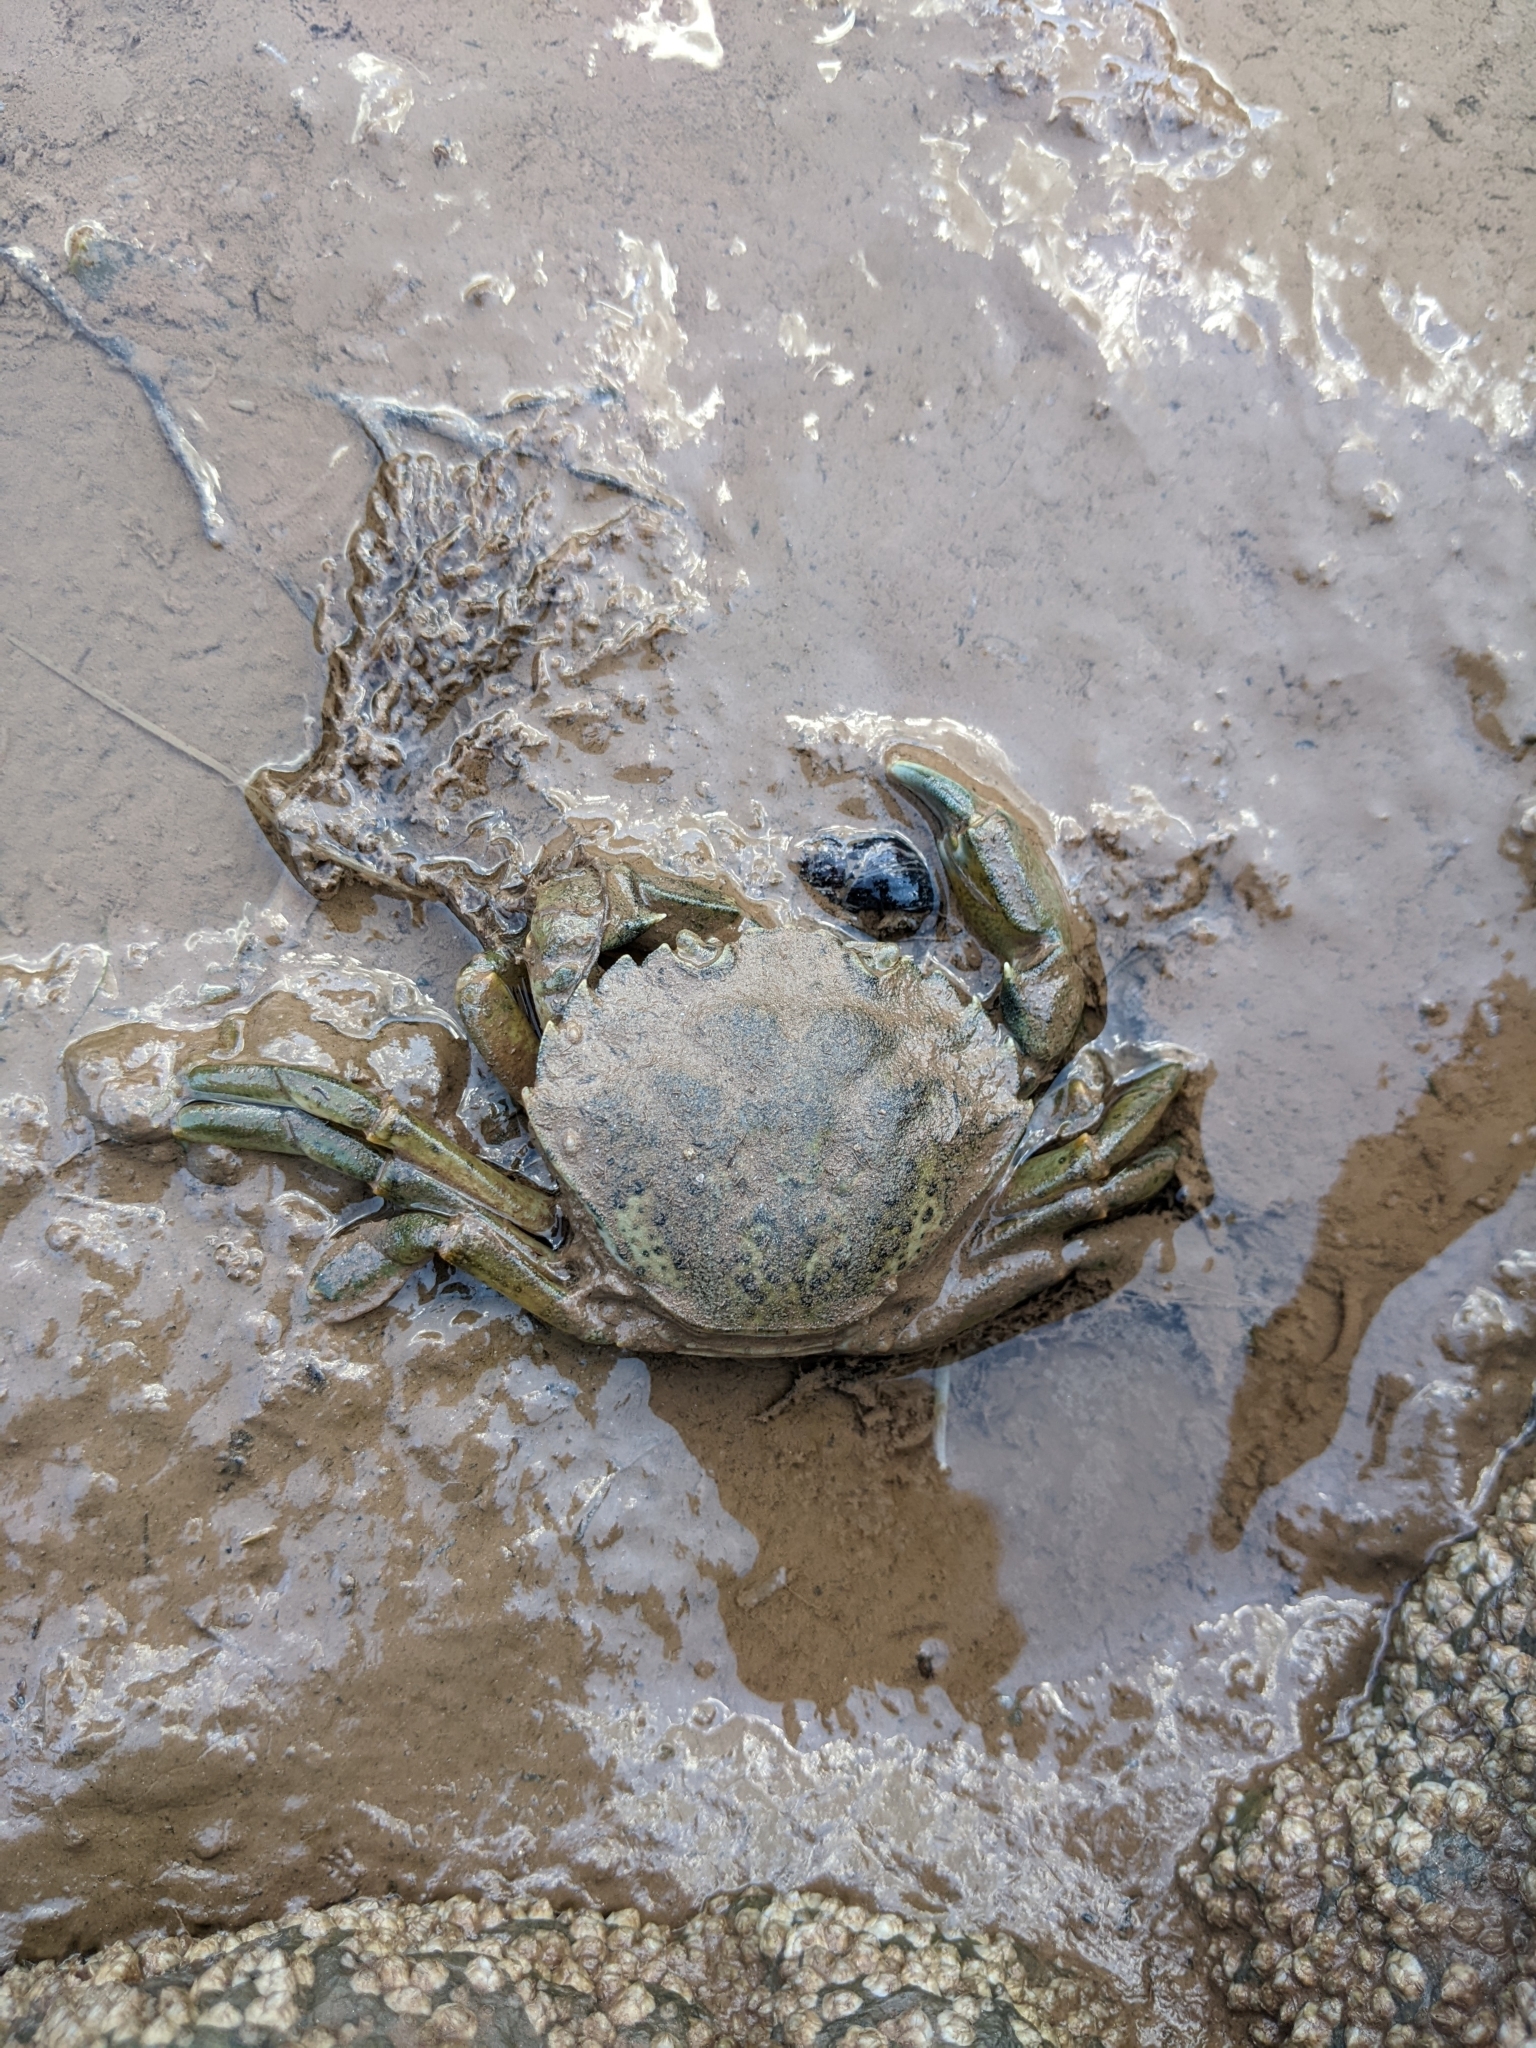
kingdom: Animalia
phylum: Arthropoda
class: Malacostraca
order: Decapoda
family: Carcinidae
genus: Carcinus
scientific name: Carcinus maenas
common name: European green crab
